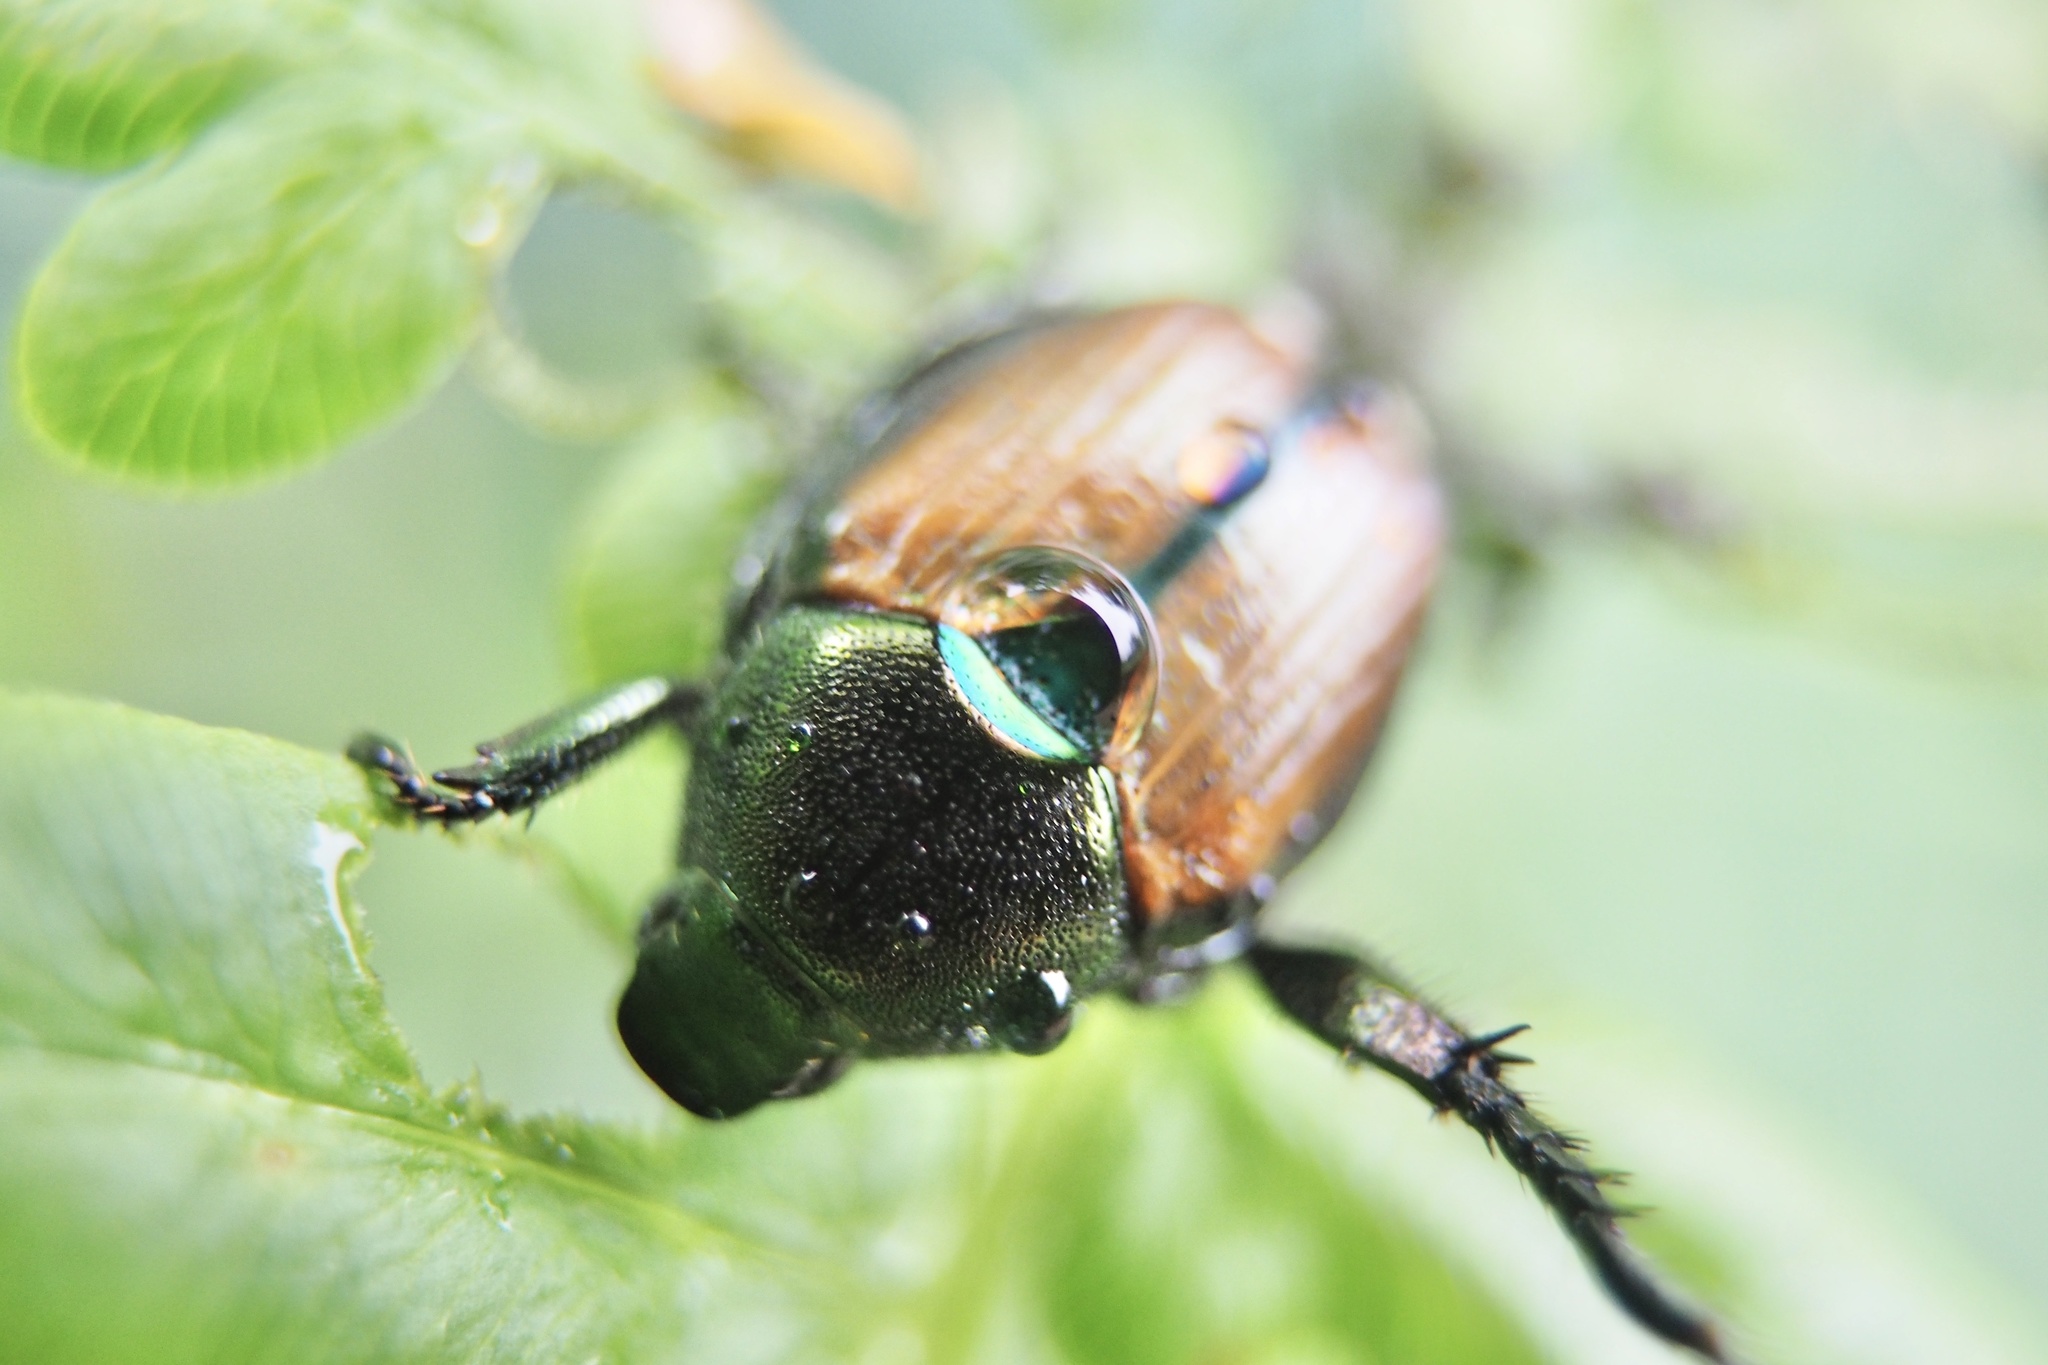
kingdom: Animalia
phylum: Arthropoda
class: Insecta
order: Coleoptera
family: Scarabaeidae
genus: Popillia
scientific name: Popillia japonica
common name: Japanese beetle
